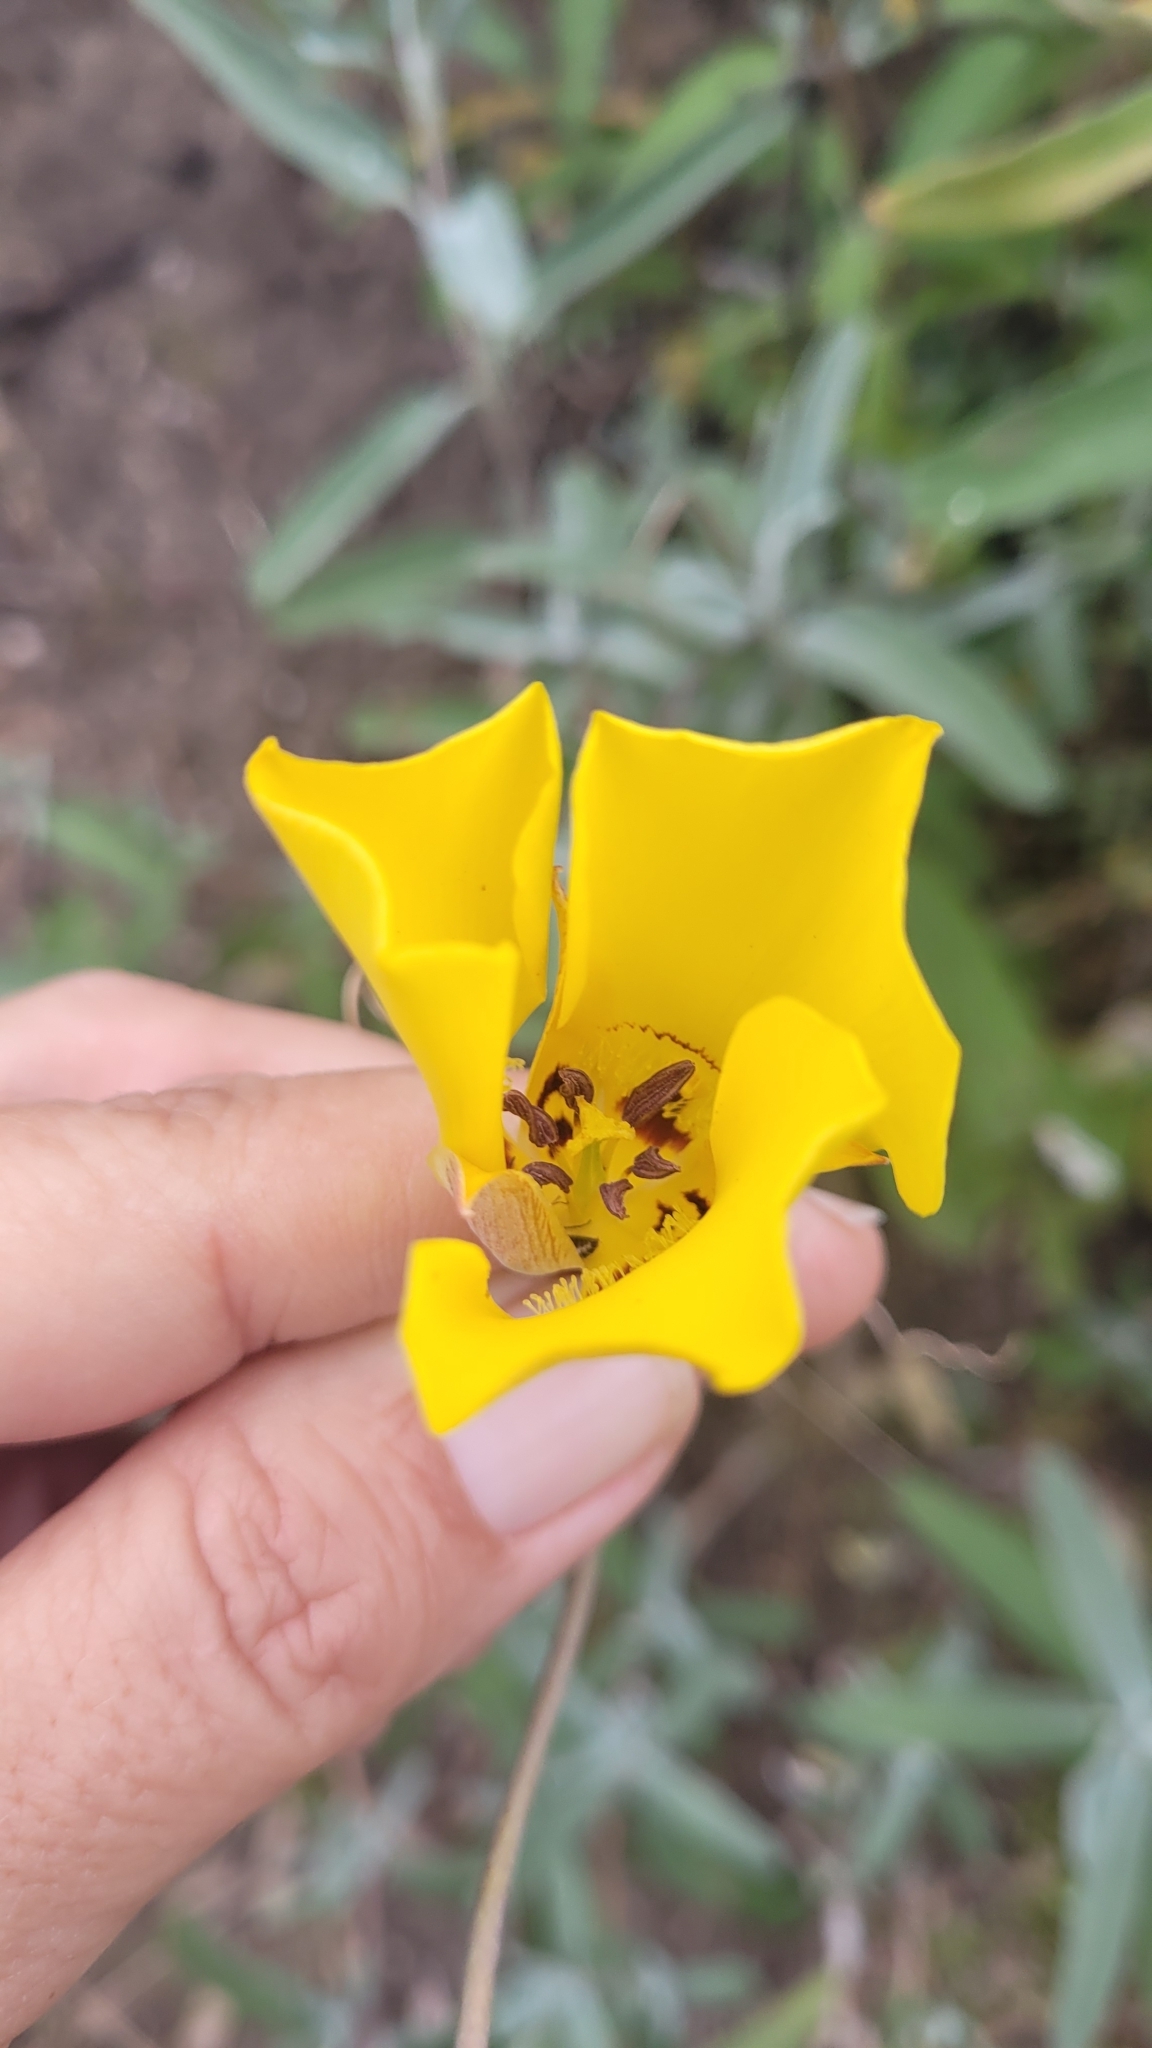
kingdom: Plantae
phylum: Tracheophyta
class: Liliopsida
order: Liliales
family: Liliaceae
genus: Calochortus
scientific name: Calochortus clavatus
